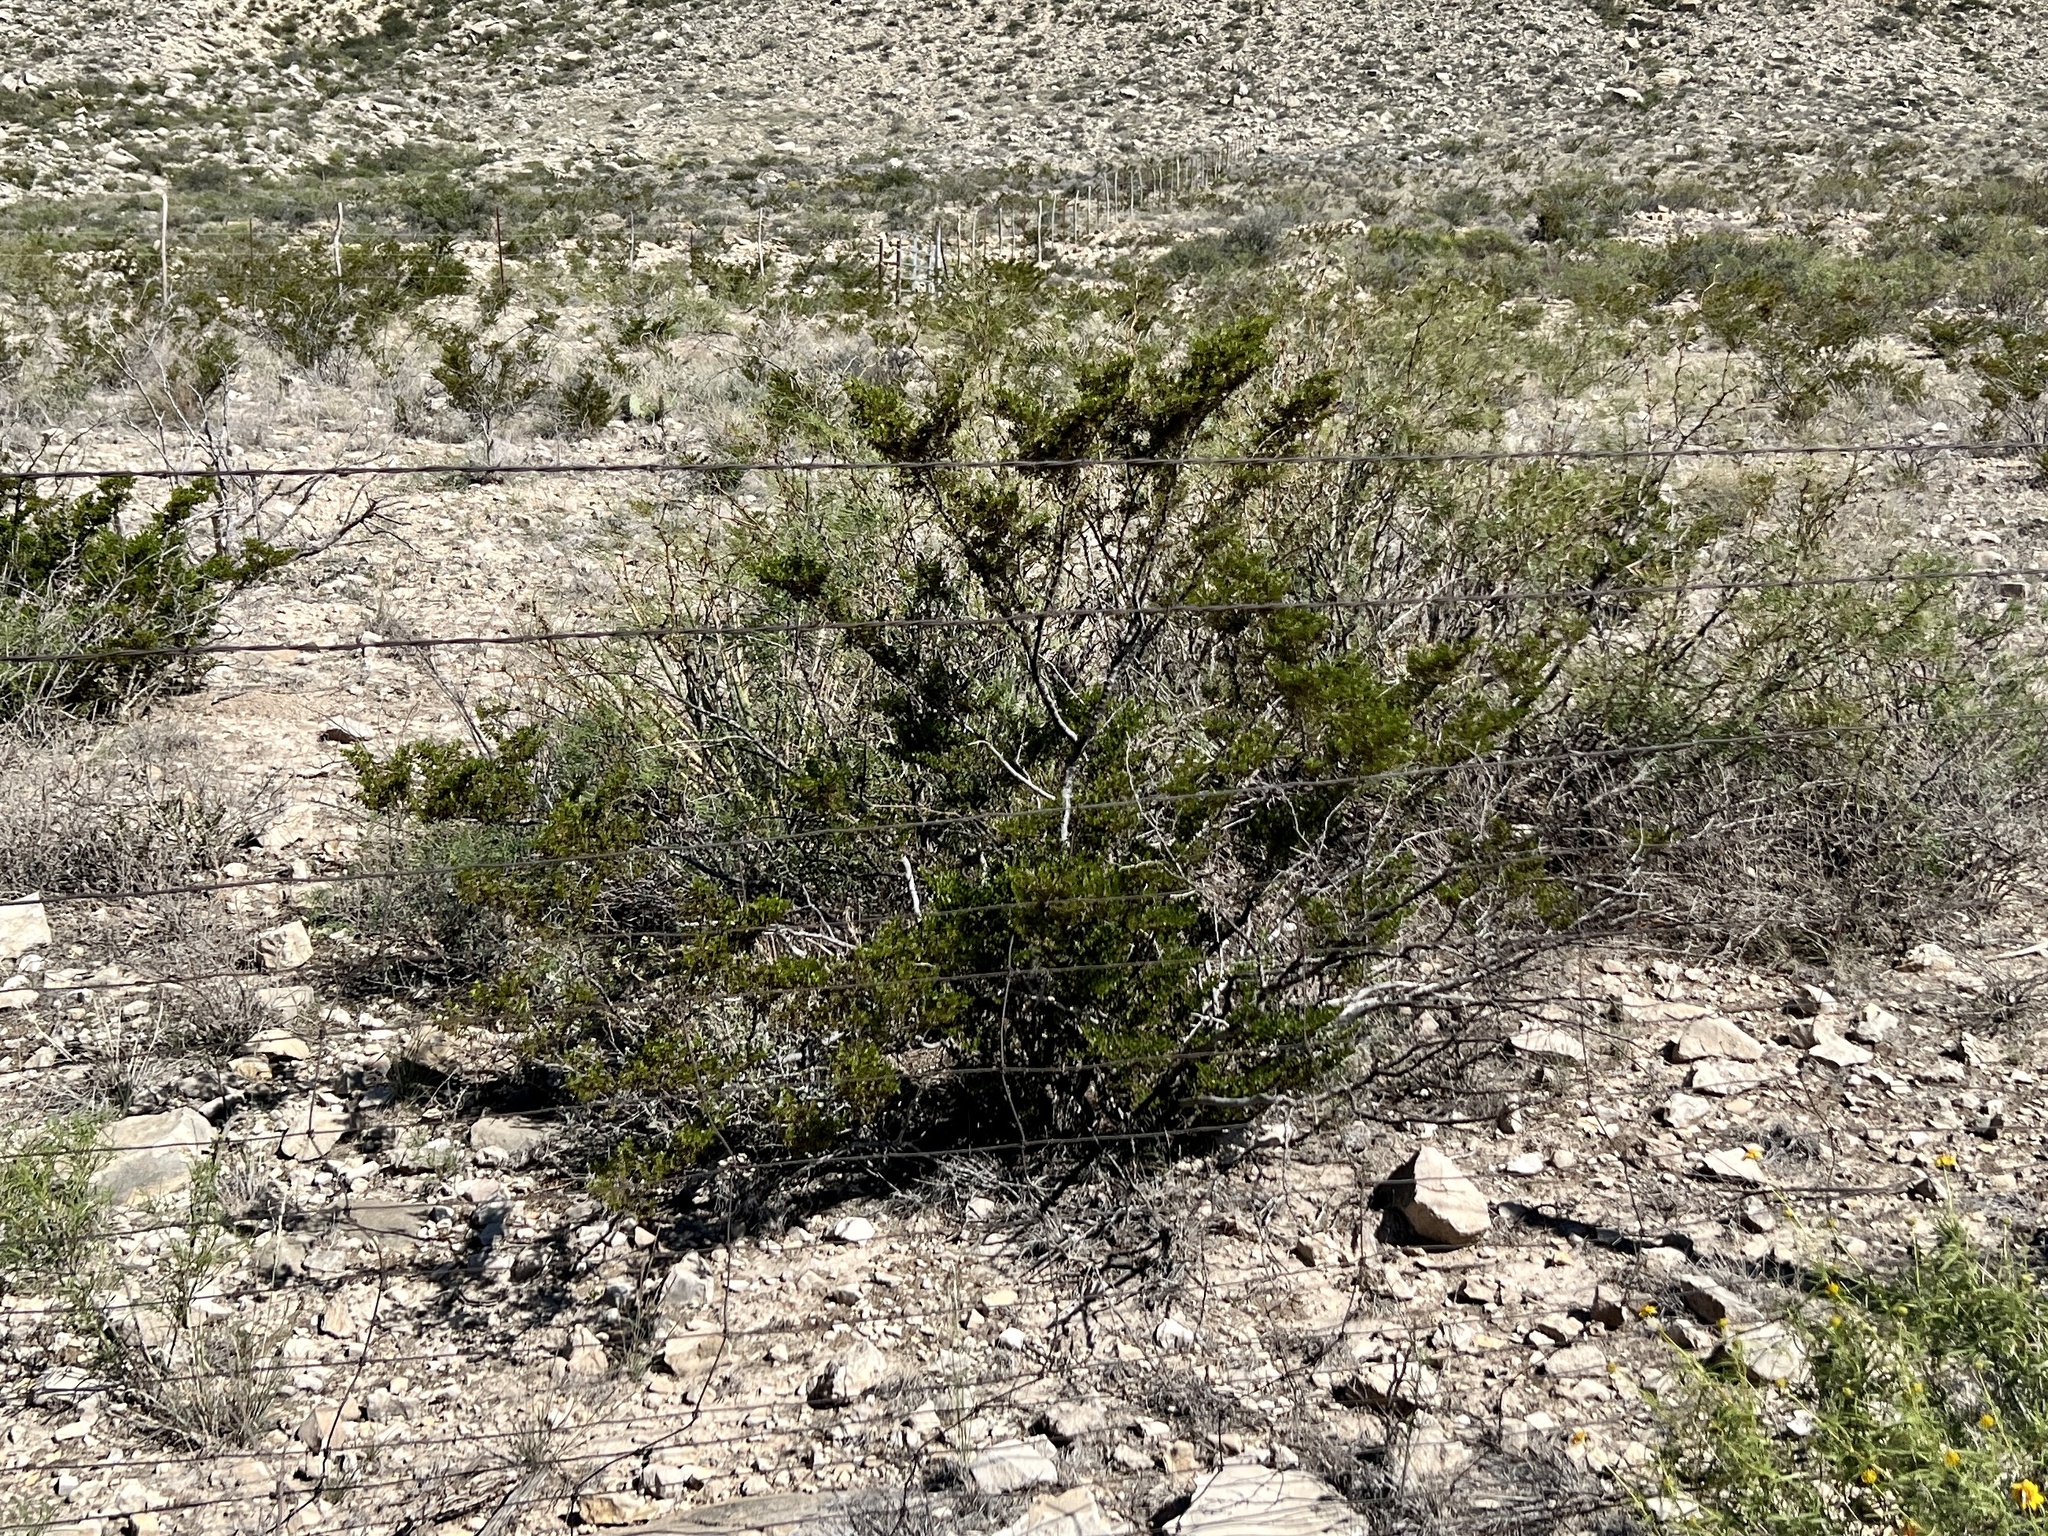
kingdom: Plantae
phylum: Tracheophyta
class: Magnoliopsida
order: Zygophyllales
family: Zygophyllaceae
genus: Larrea
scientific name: Larrea tridentata
